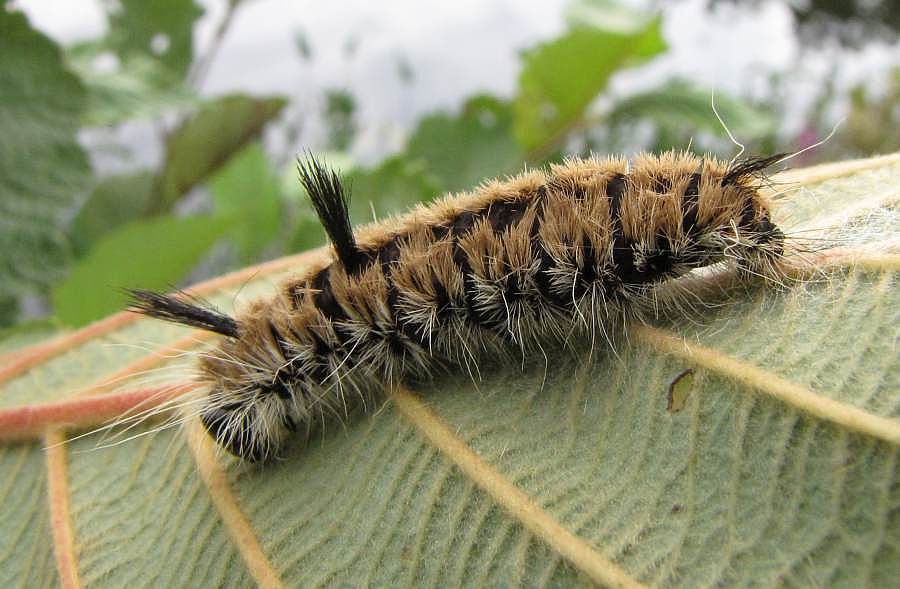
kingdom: Animalia
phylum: Arthropoda
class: Insecta
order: Lepidoptera
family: Noctuidae
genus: Acronicta
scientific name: Acronicta insita
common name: Large gray dagger
